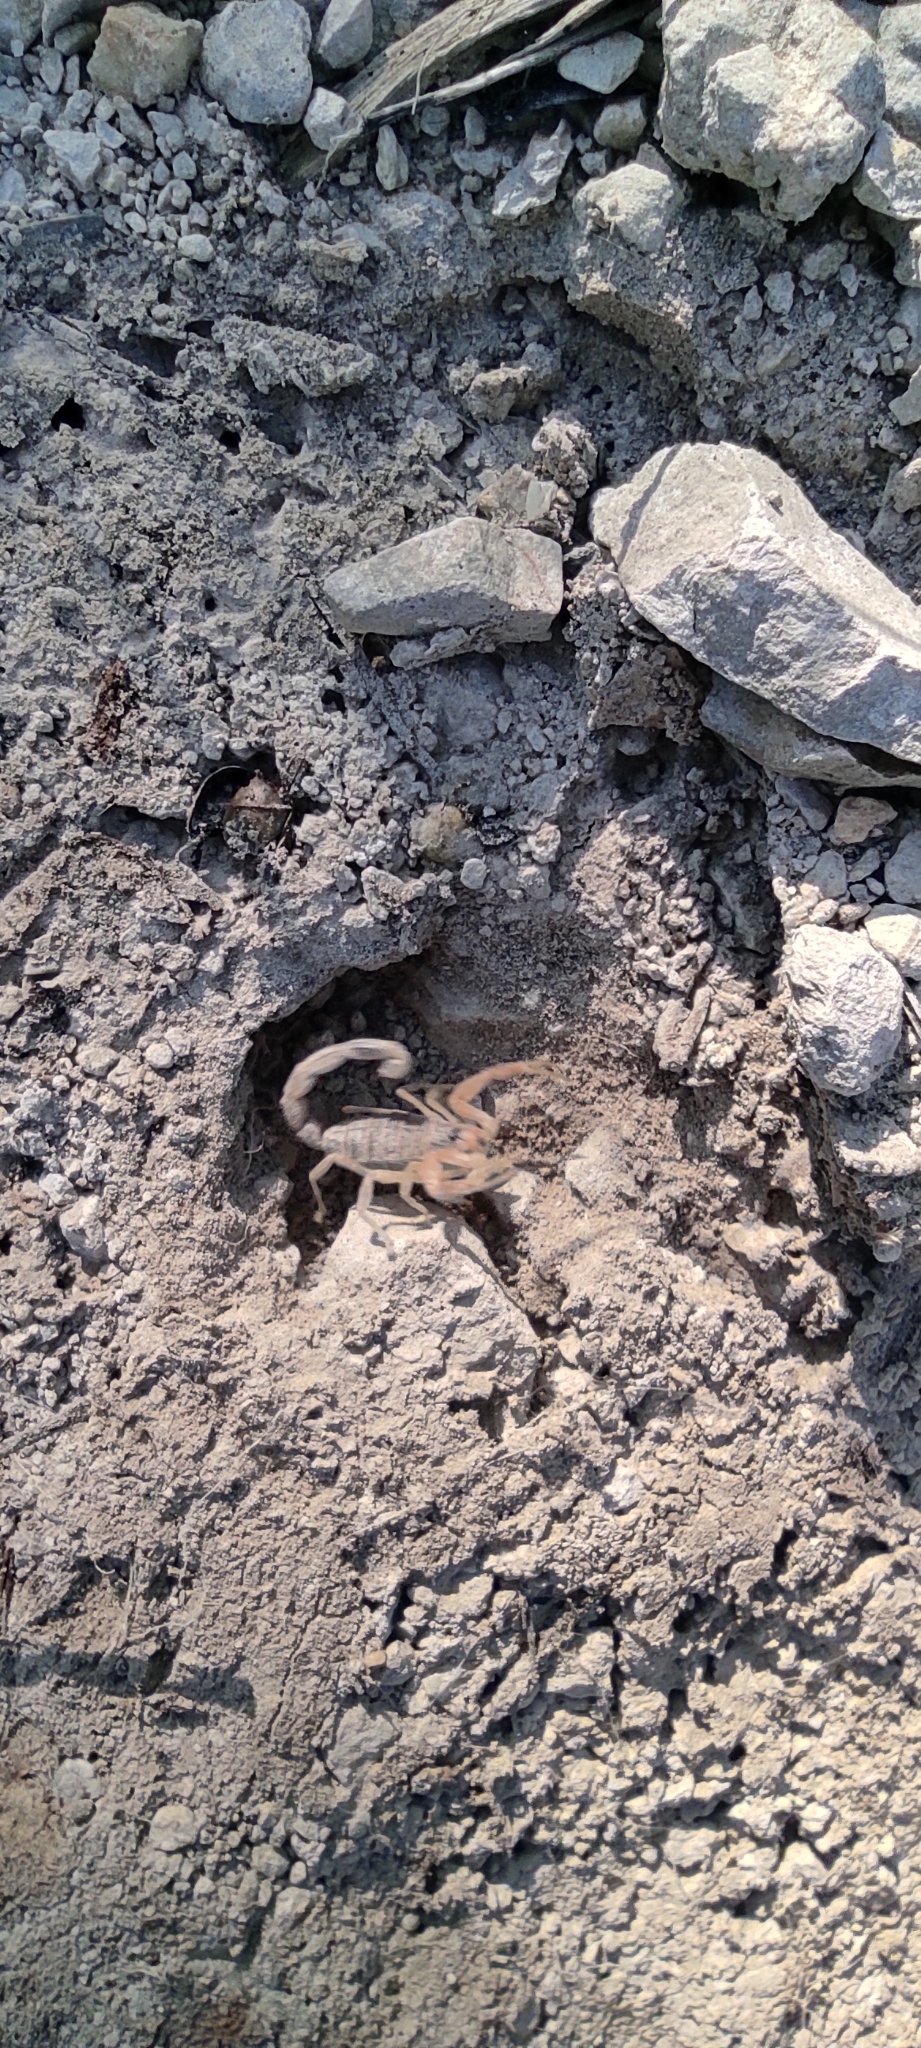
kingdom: Animalia
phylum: Arthropoda
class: Arachnida
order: Scorpiones
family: Buthidae
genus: Buthus
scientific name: Buthus occitanus
